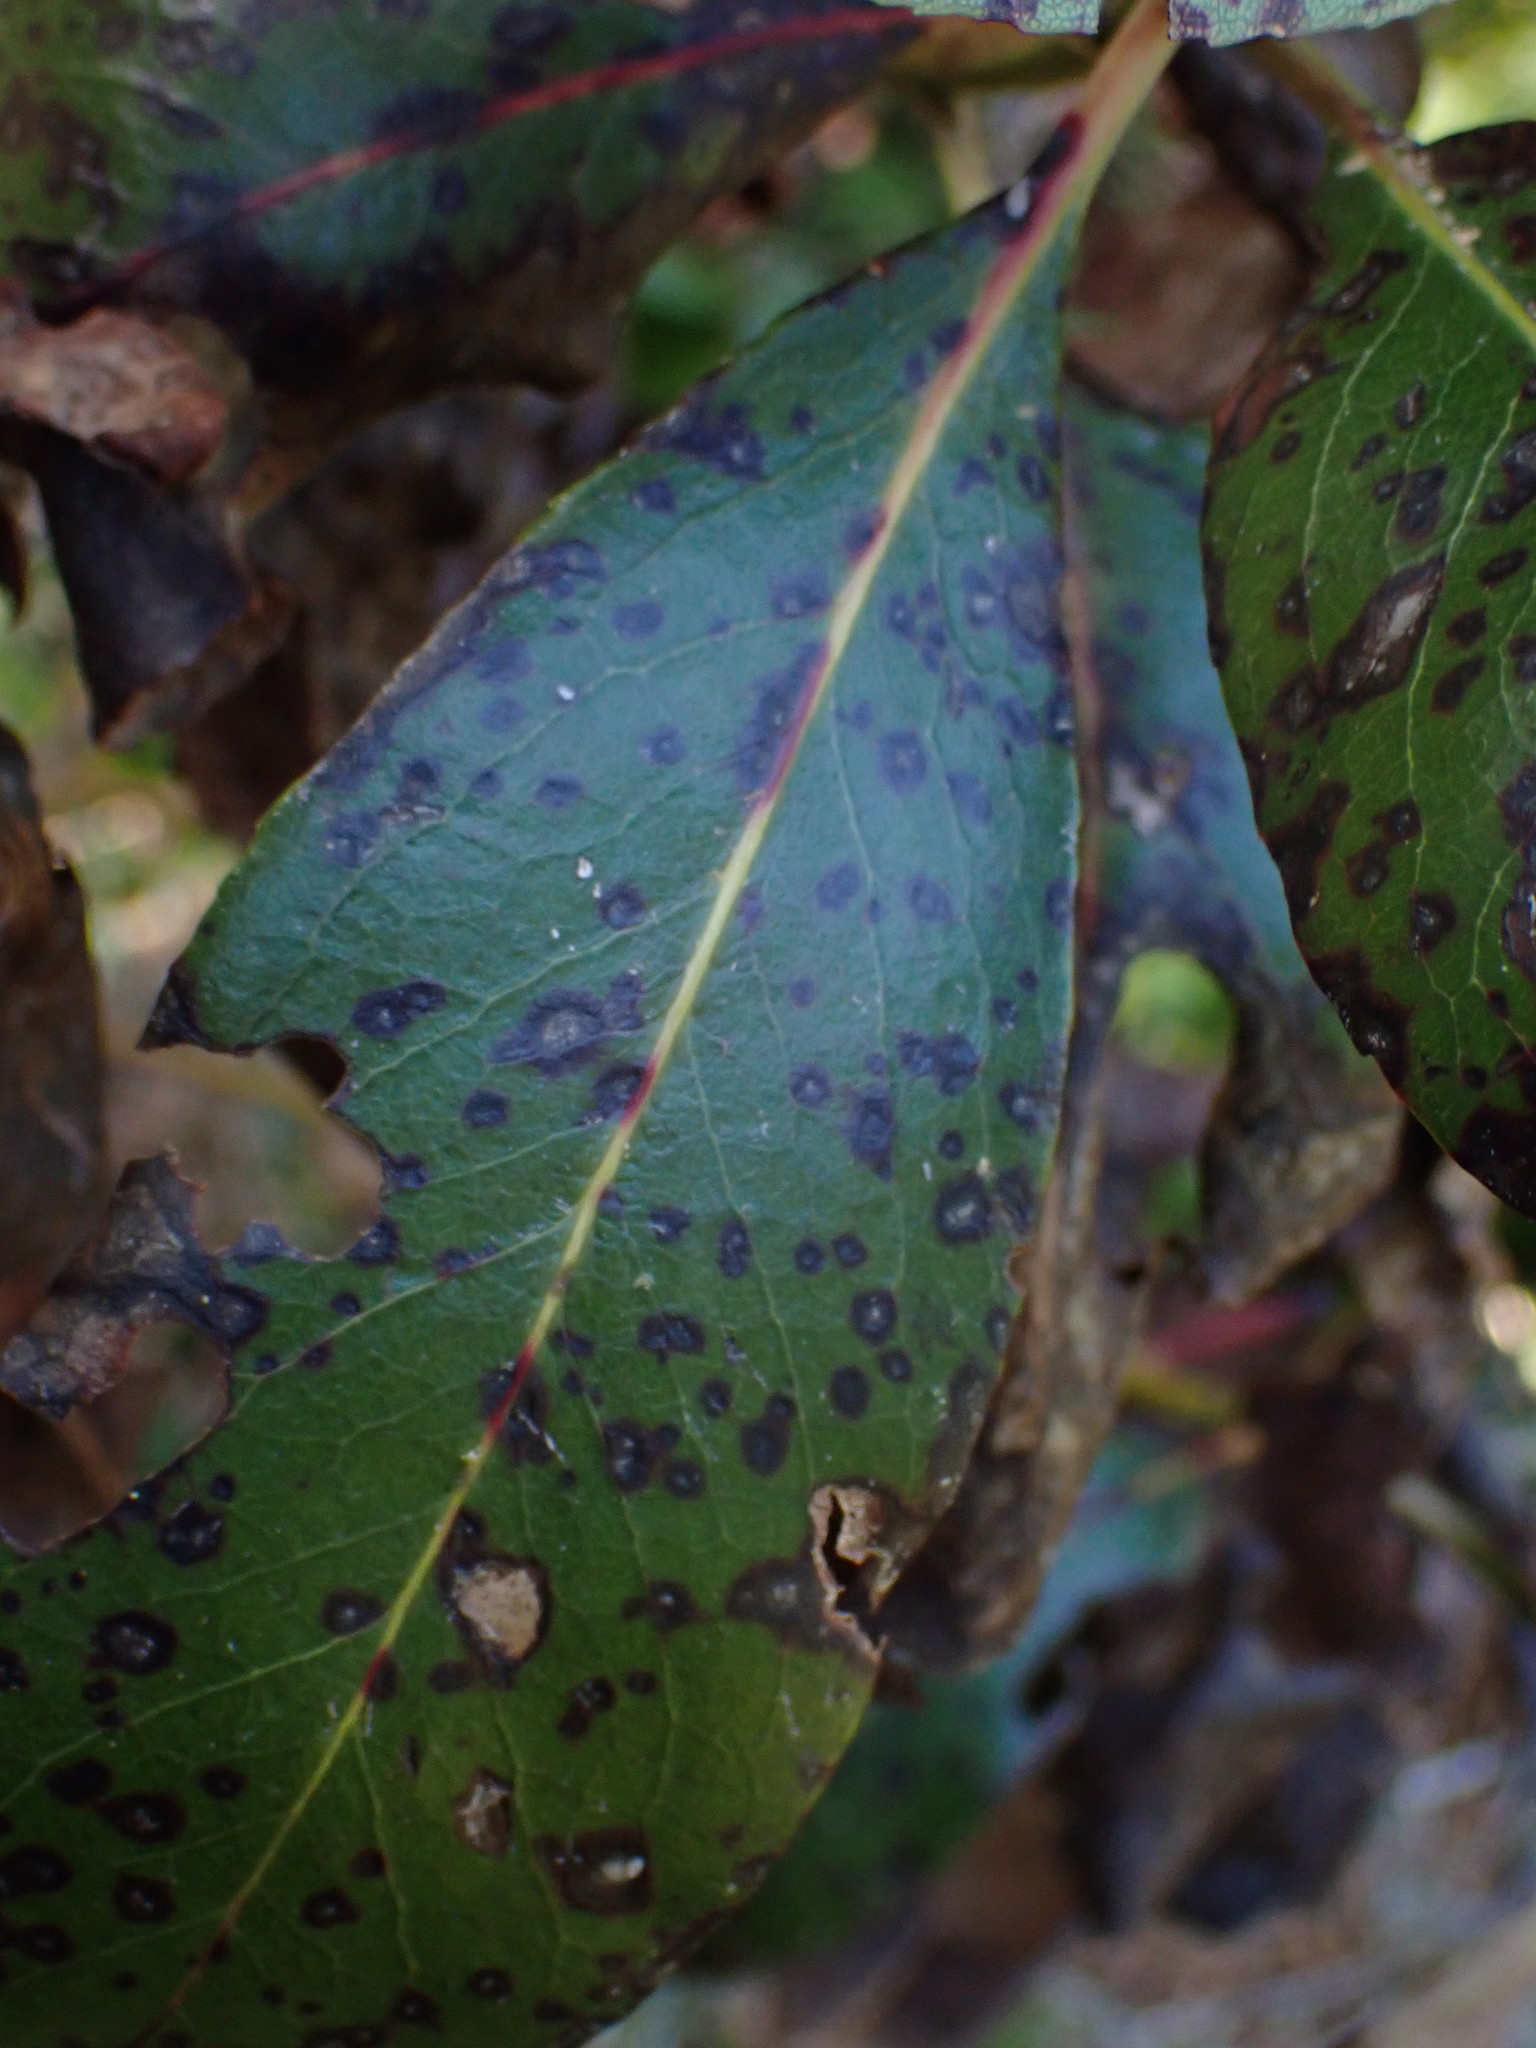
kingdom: Plantae
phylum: Tracheophyta
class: Magnoliopsida
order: Ericales
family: Ericaceae
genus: Arbutus
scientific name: Arbutus menziesii
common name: Pacific madrone
